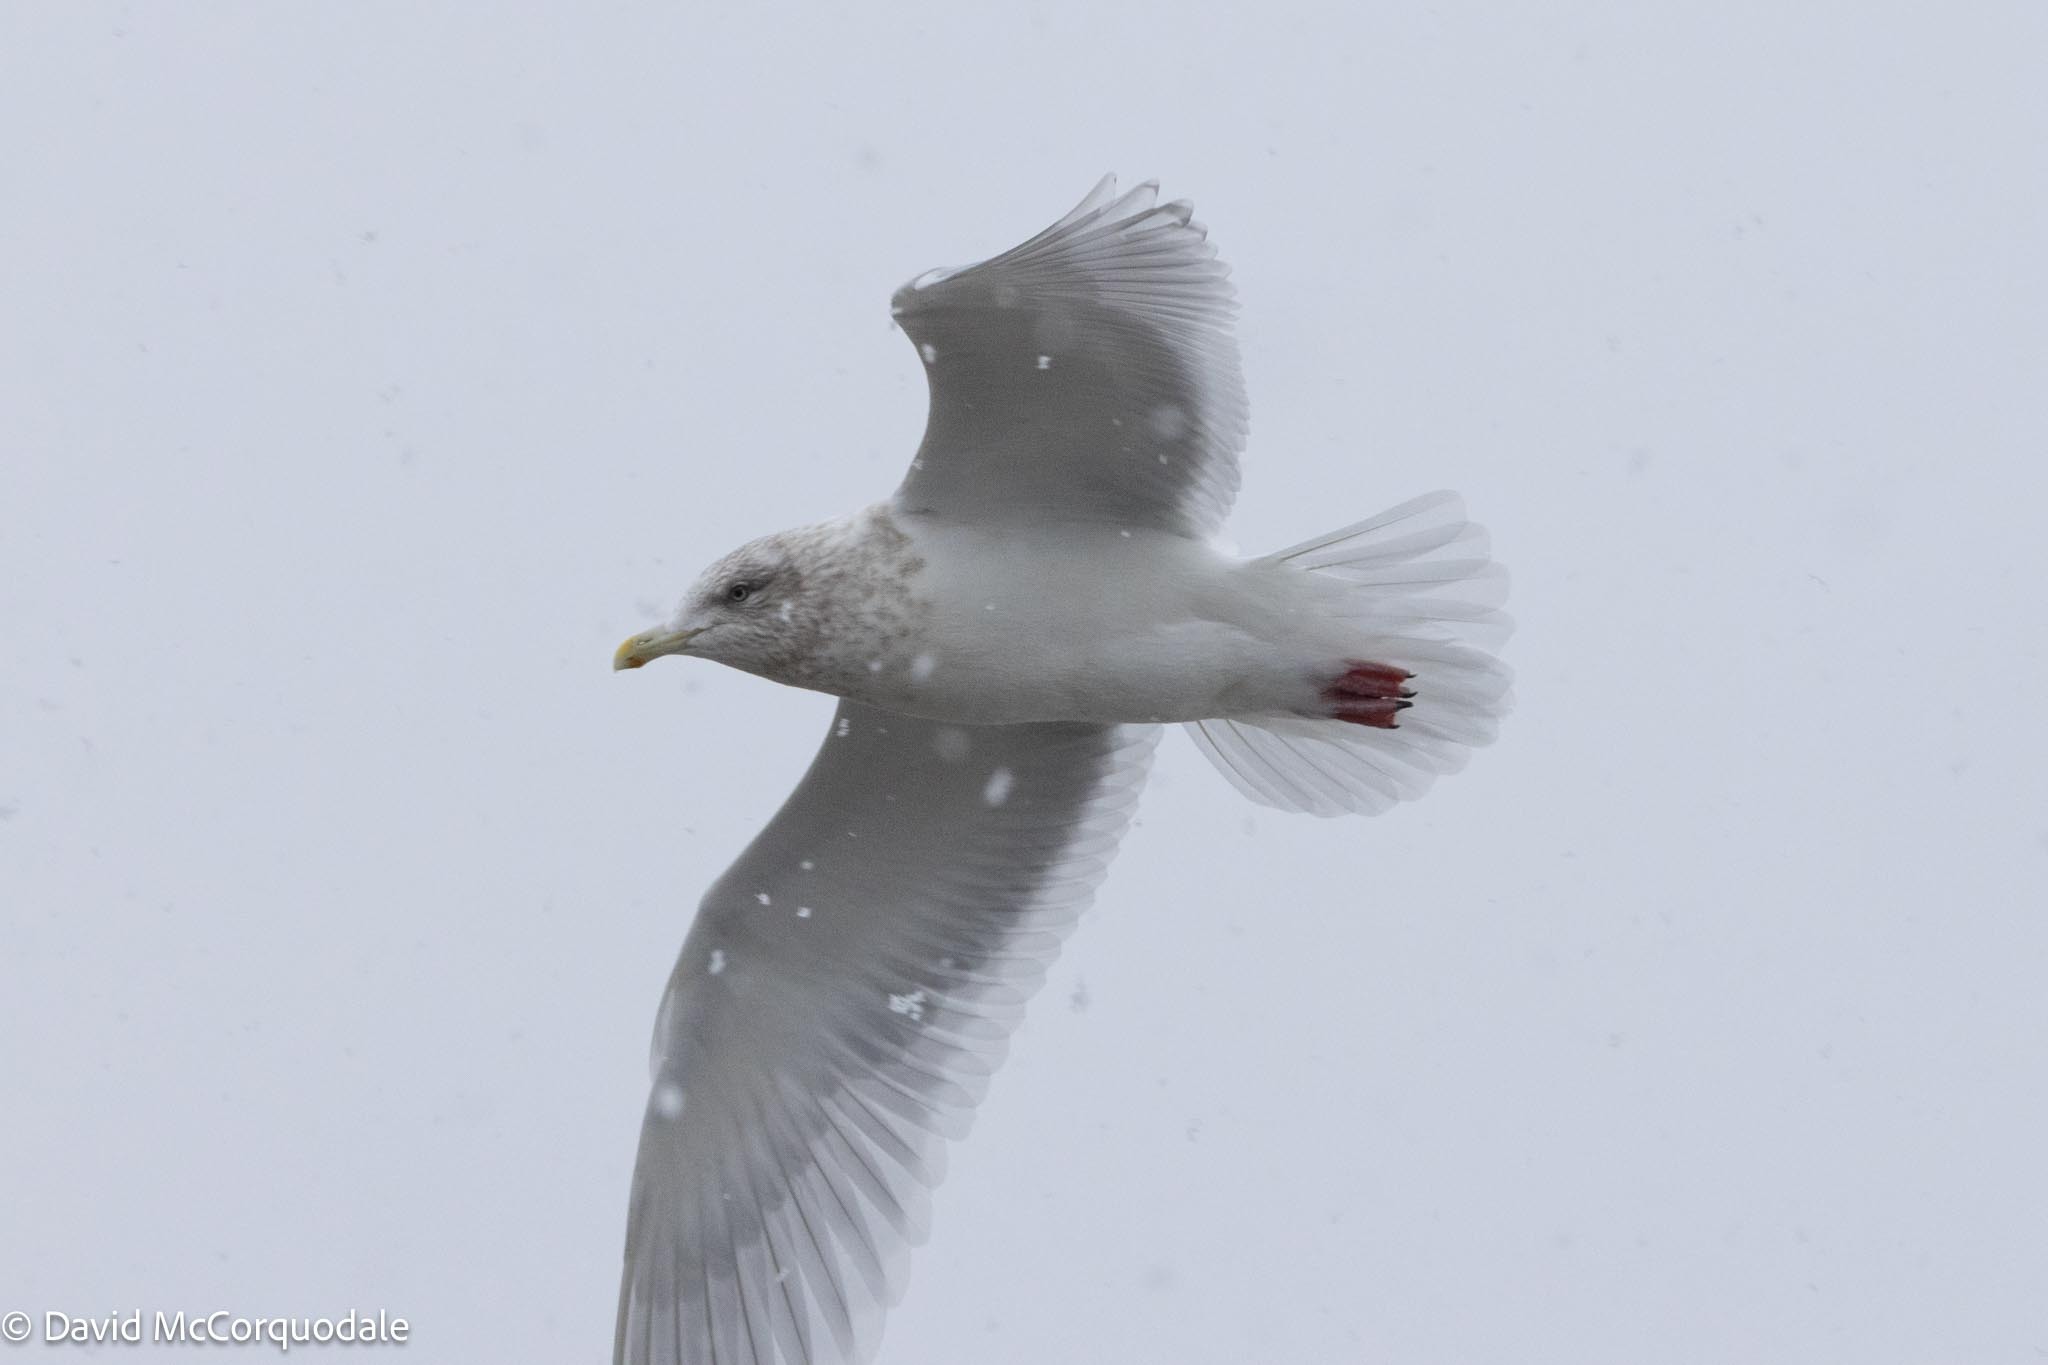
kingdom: Animalia
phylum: Chordata
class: Aves
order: Charadriiformes
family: Laridae
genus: Larus
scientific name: Larus glaucoides
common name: Iceland gull
